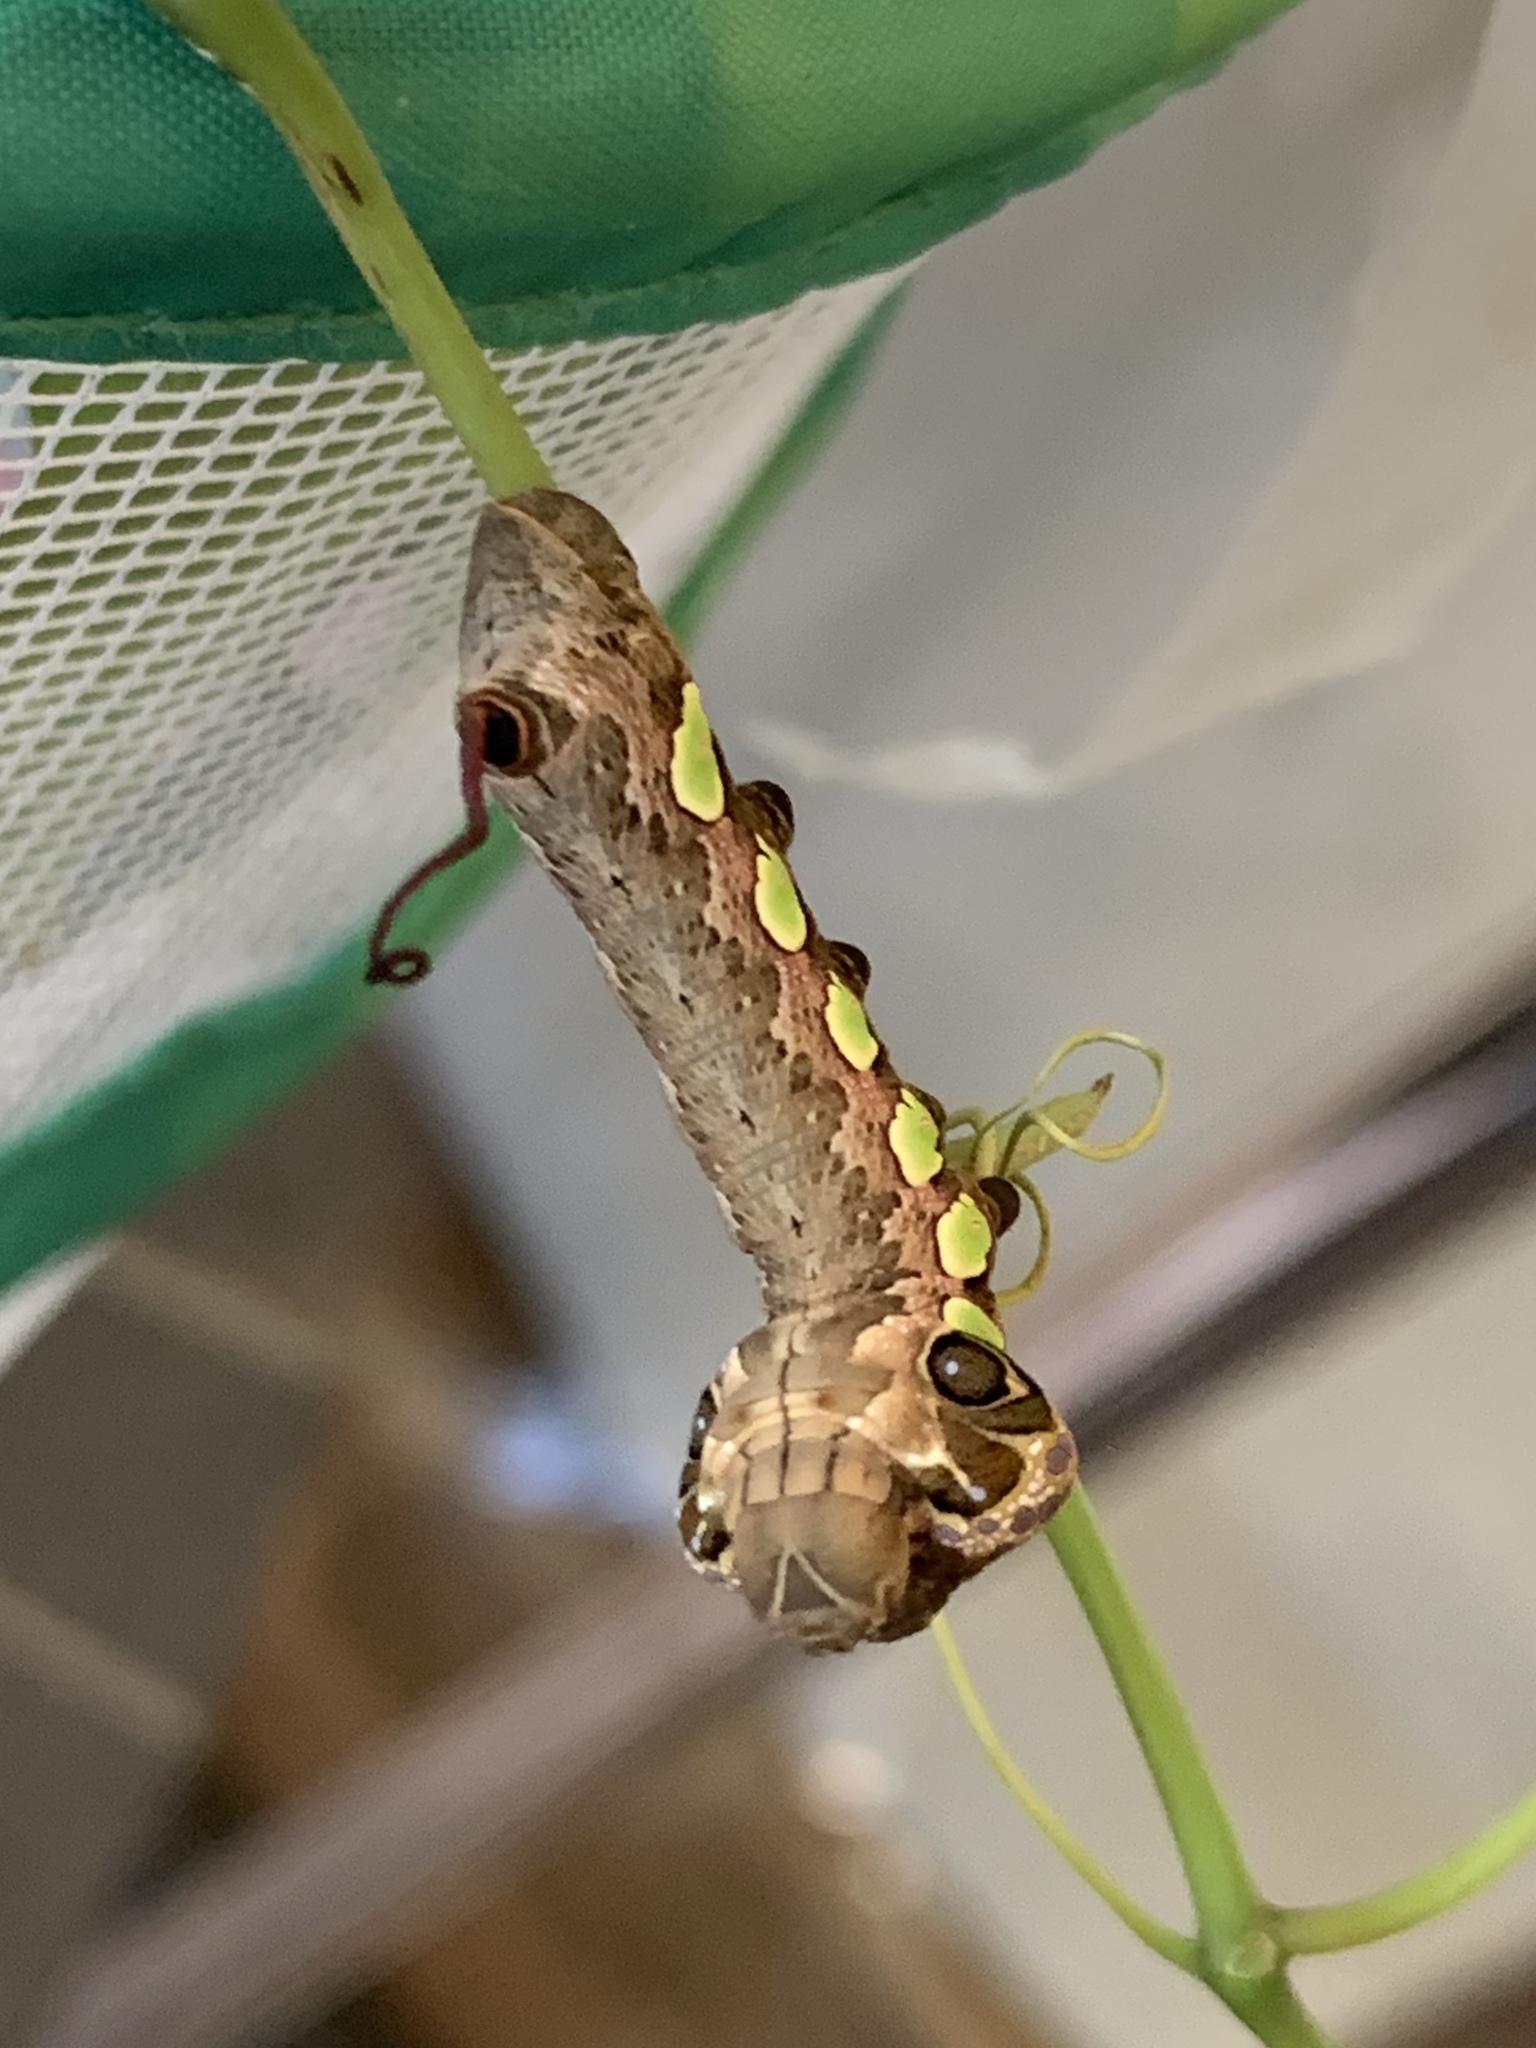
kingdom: Animalia
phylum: Arthropoda
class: Insecta
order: Lepidoptera
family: Sphingidae
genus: Eumorpha
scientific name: Eumorpha labruscae
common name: Gaudy sphinx
